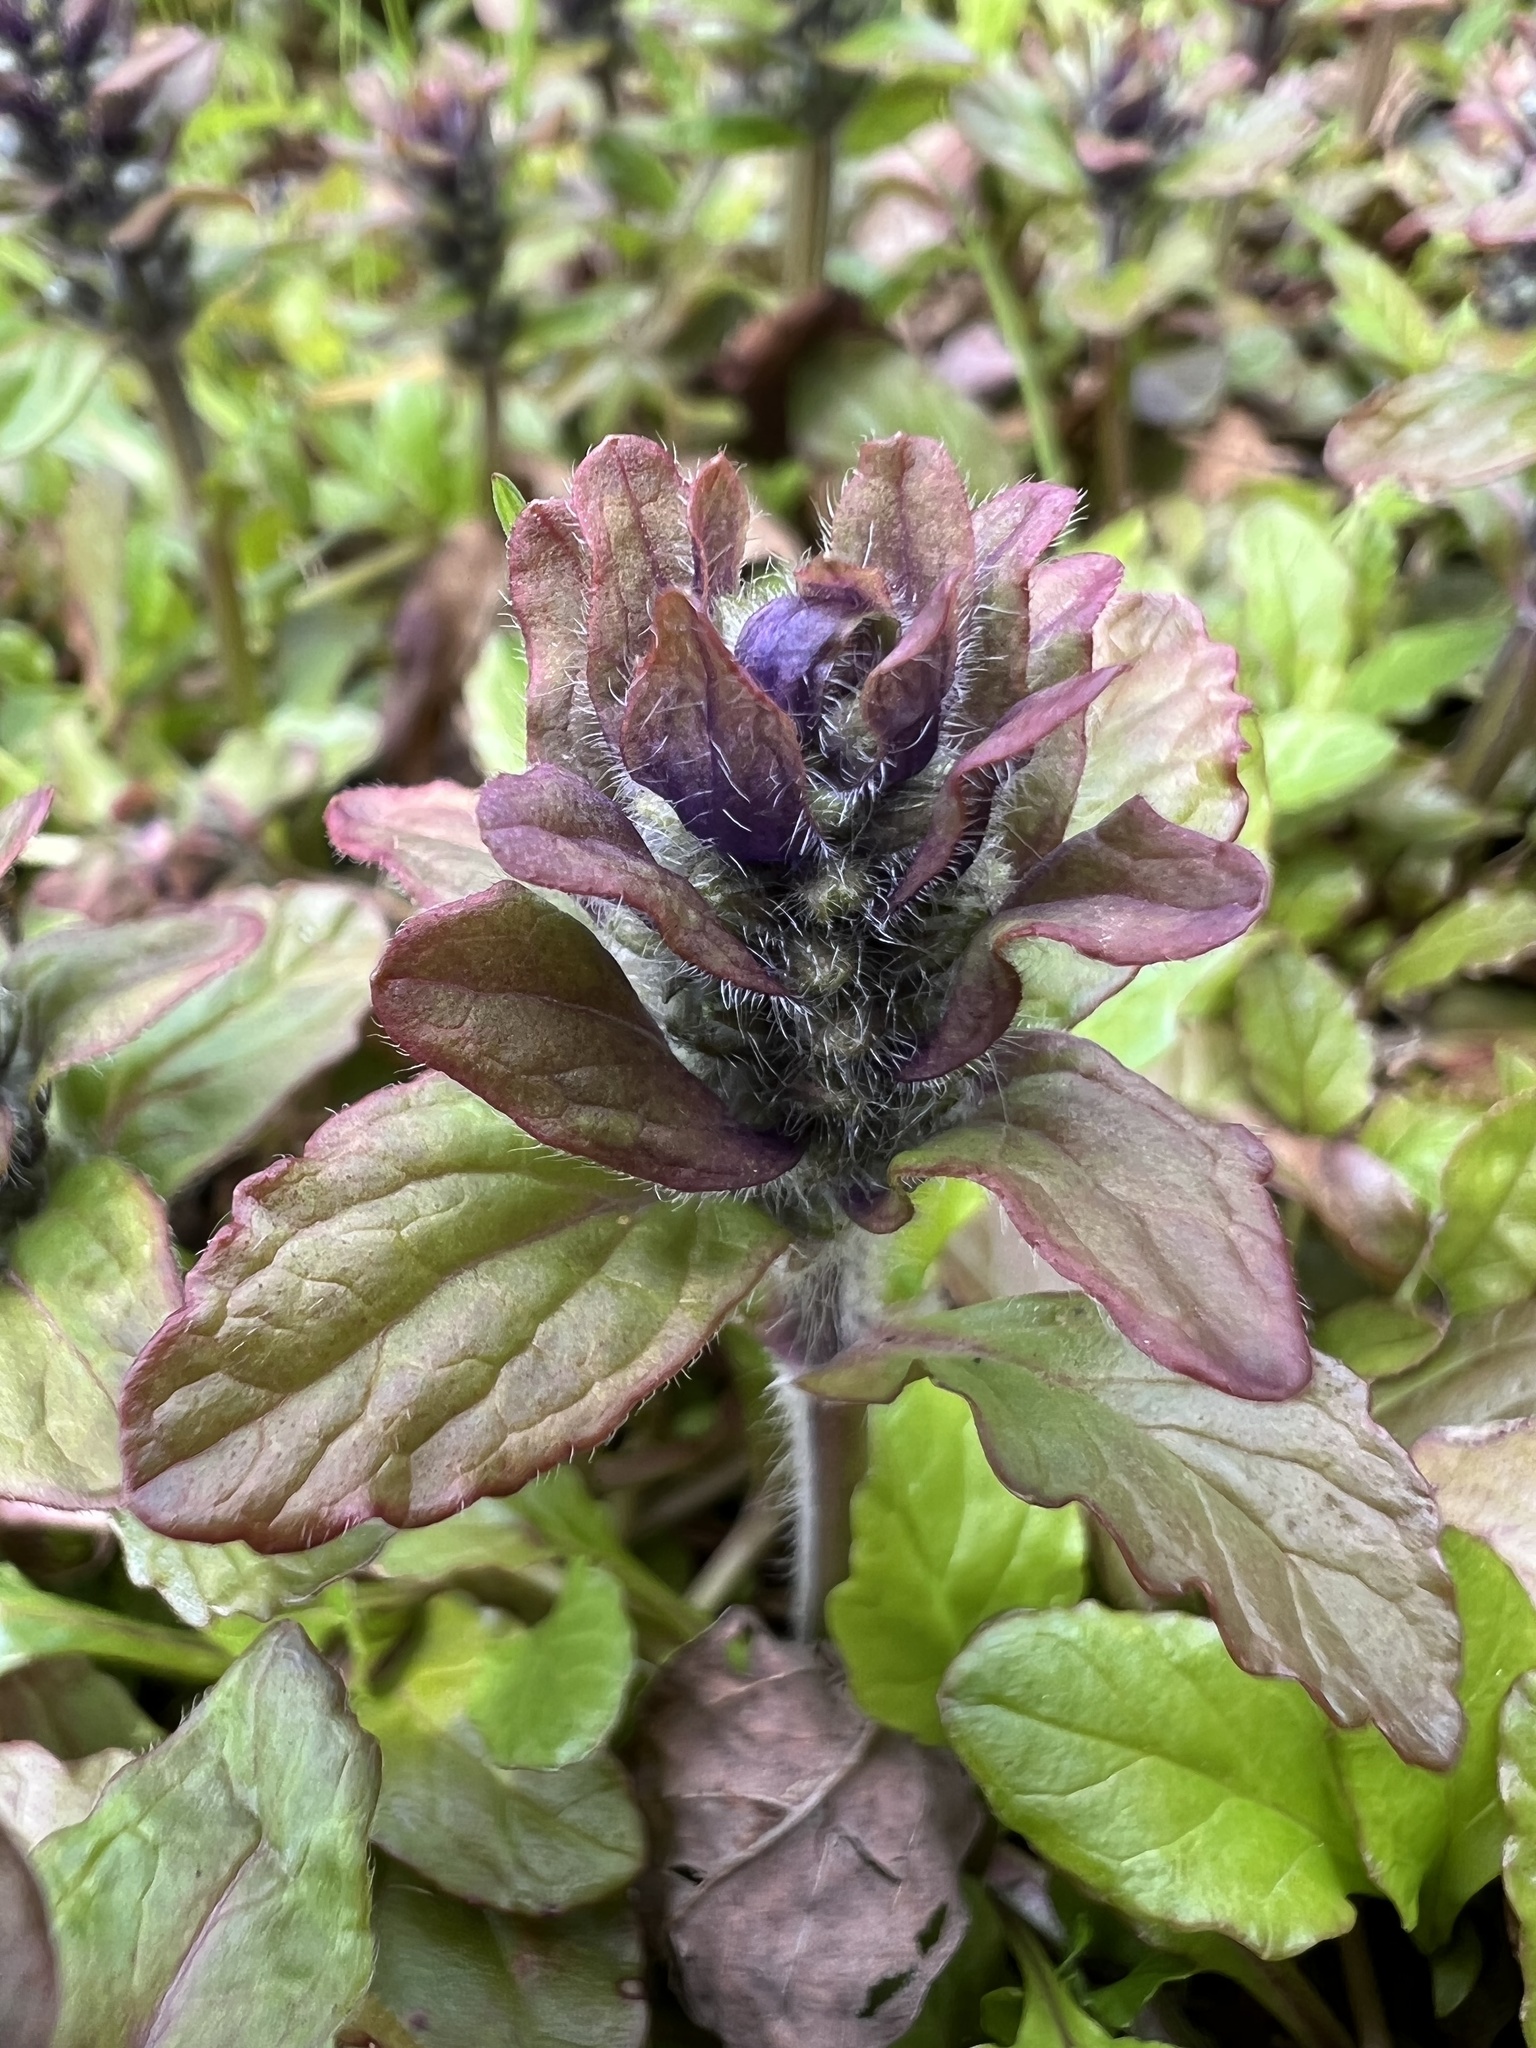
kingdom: Plantae
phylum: Tracheophyta
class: Magnoliopsida
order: Lamiales
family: Lamiaceae
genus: Ajuga
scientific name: Ajuga reptans
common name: Bugle
